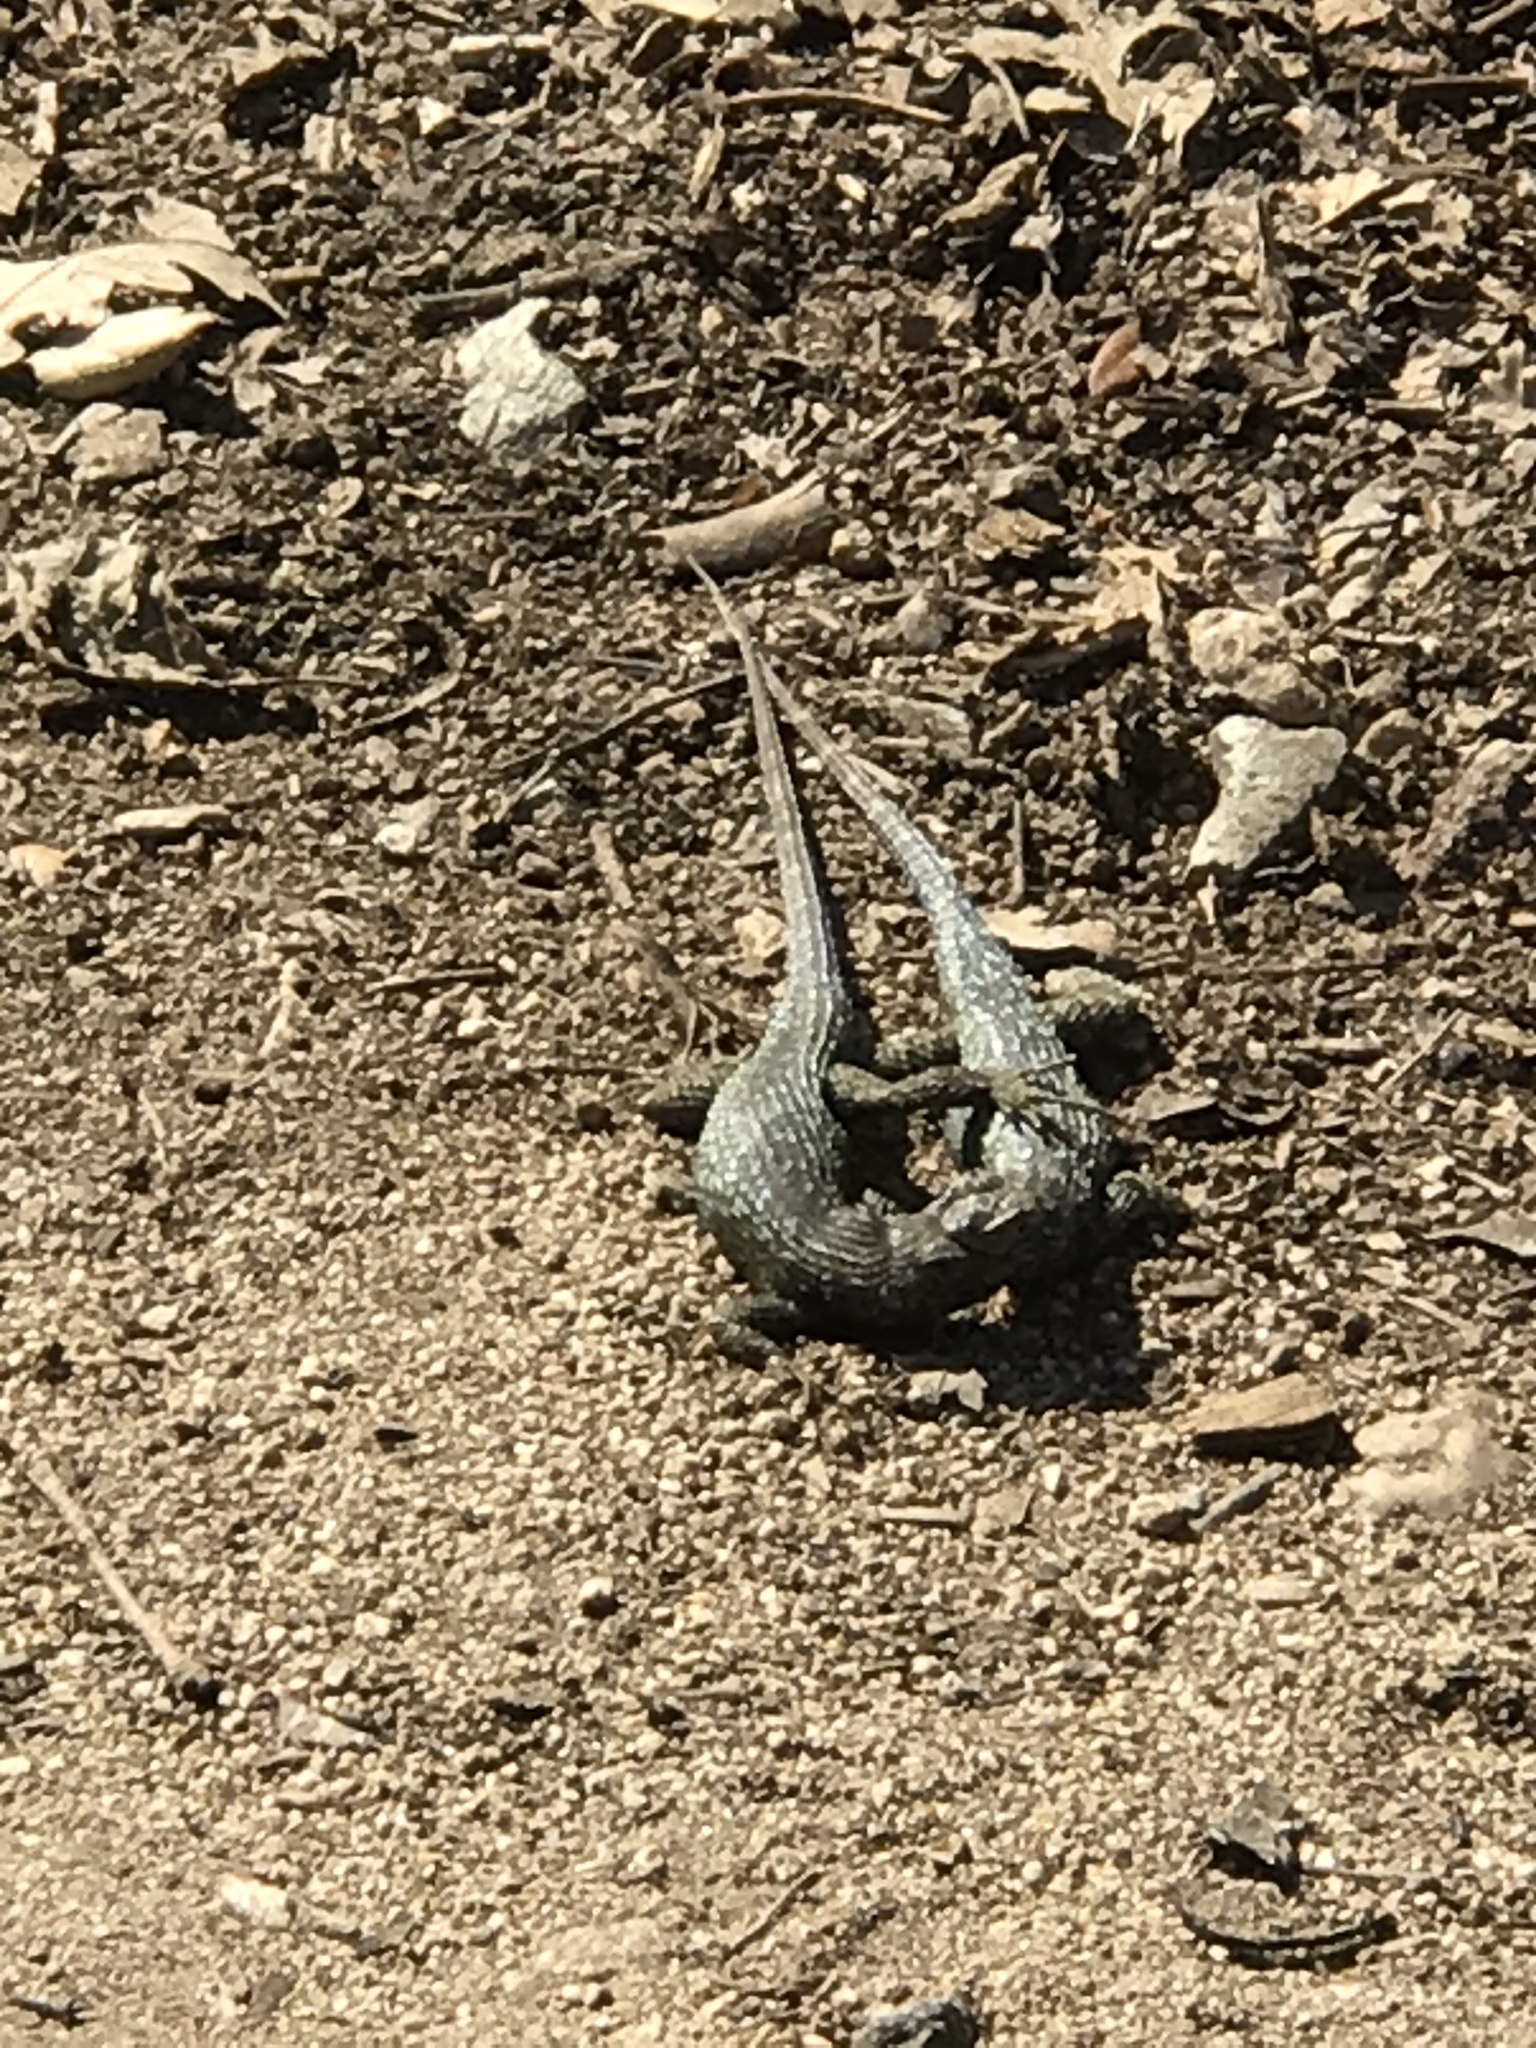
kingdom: Animalia
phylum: Chordata
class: Squamata
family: Phrynosomatidae
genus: Sceloporus
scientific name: Sceloporus occidentalis
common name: Western fence lizard
